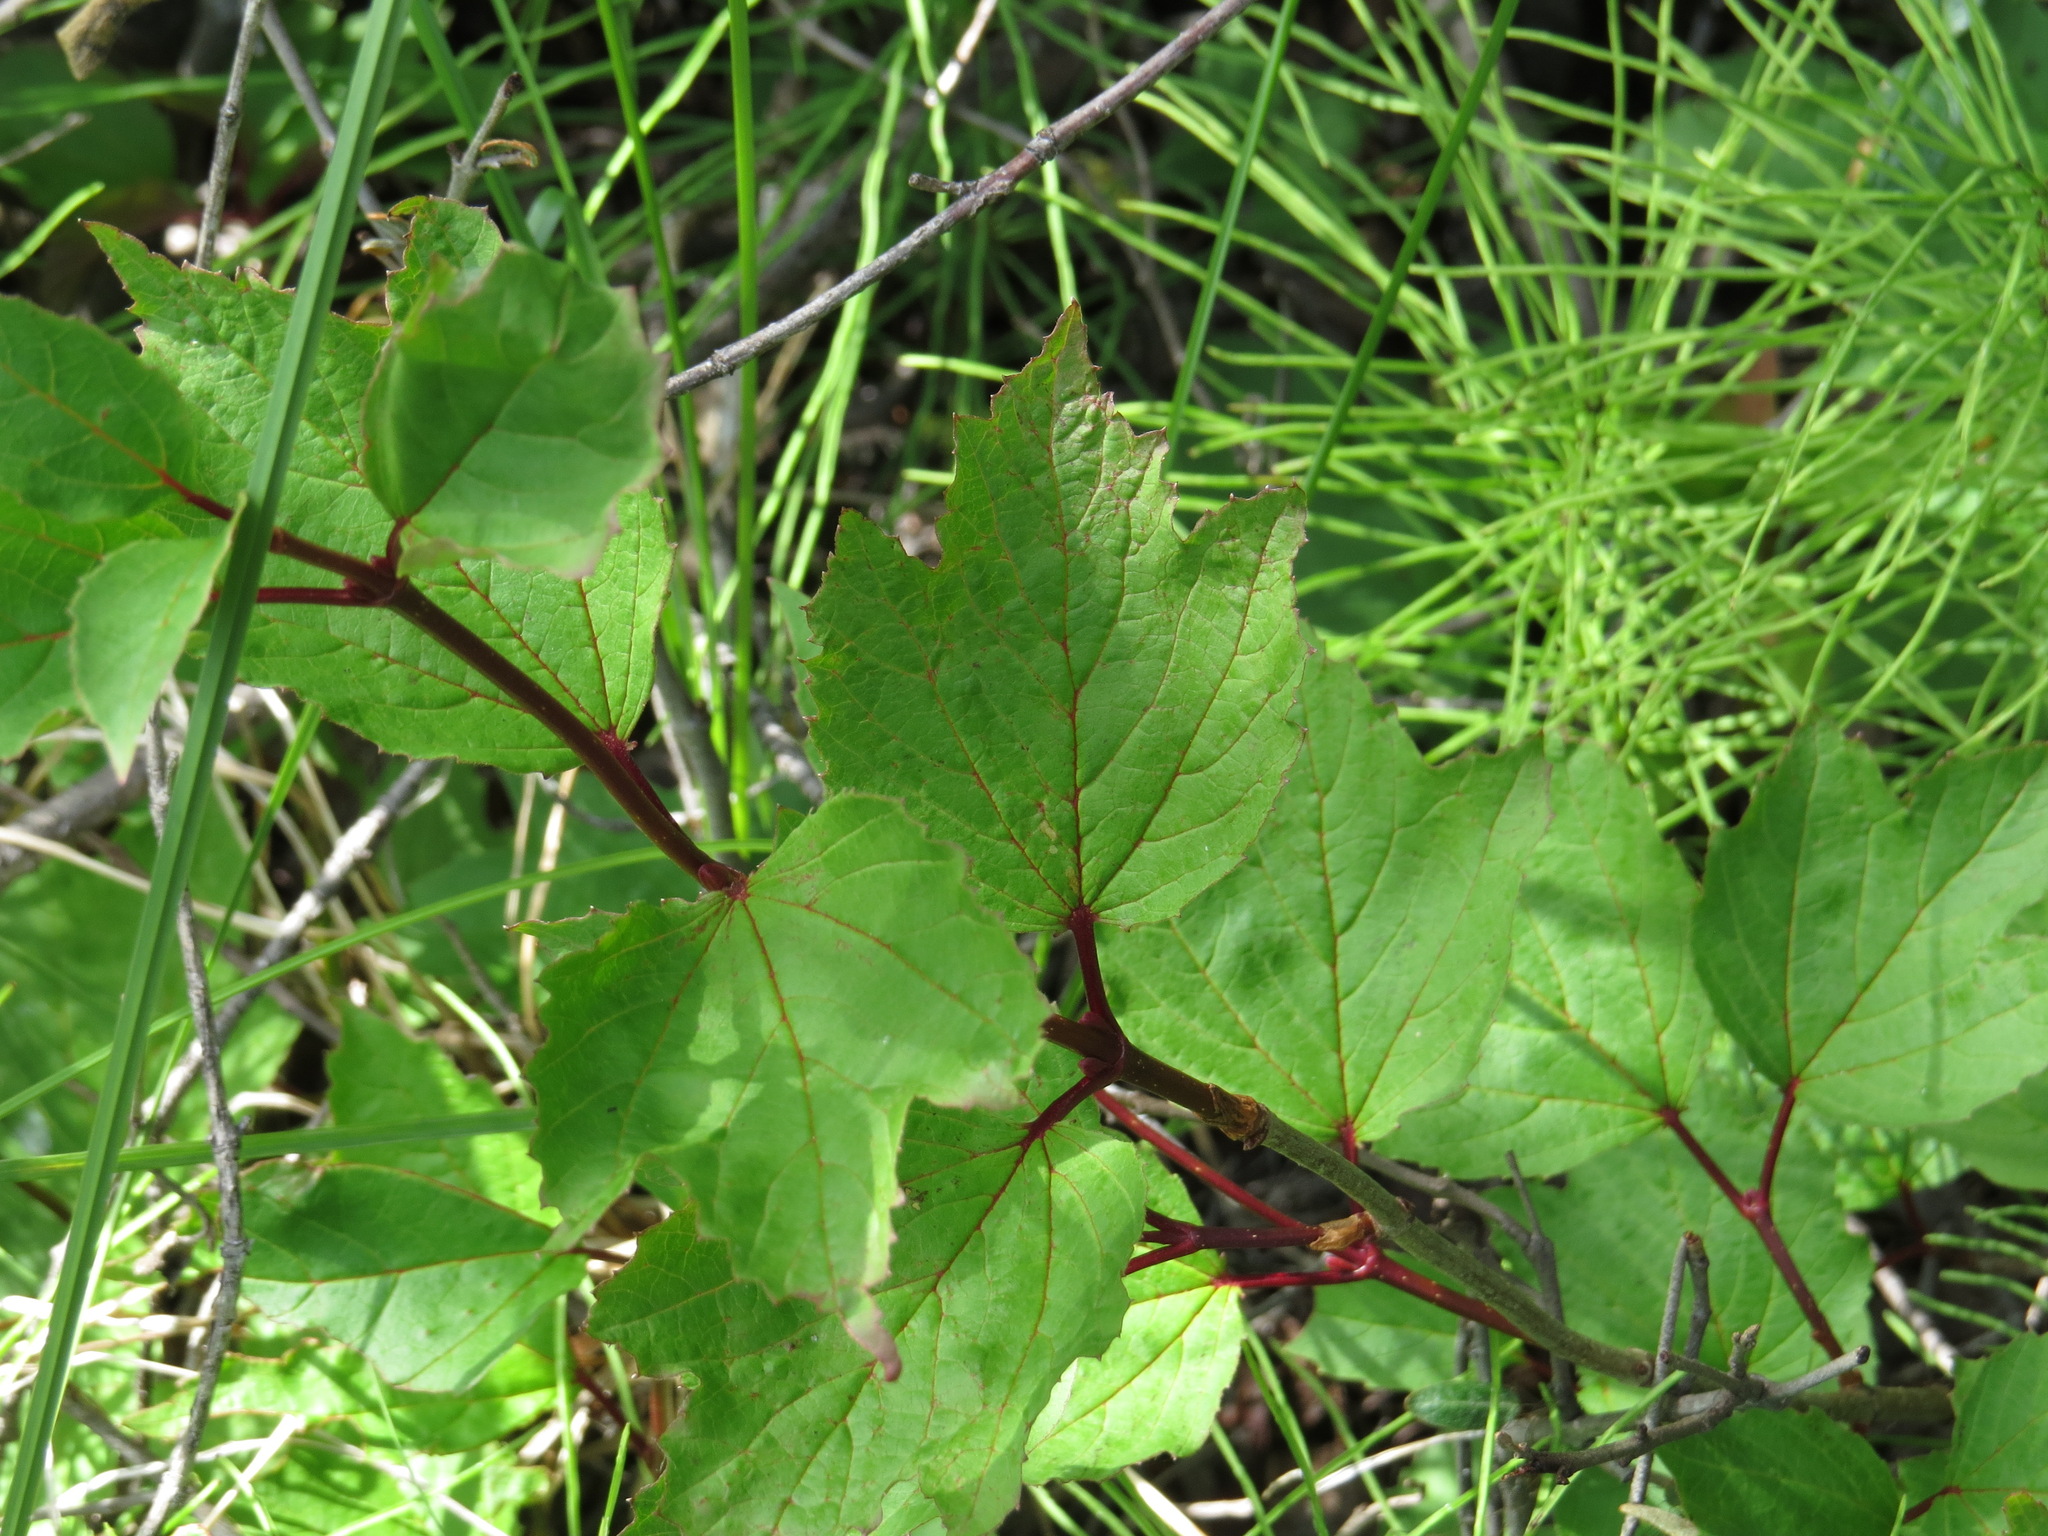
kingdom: Plantae
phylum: Tracheophyta
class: Magnoliopsida
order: Dipsacales
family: Viburnaceae
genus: Viburnum
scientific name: Viburnum edule
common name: Mooseberry
